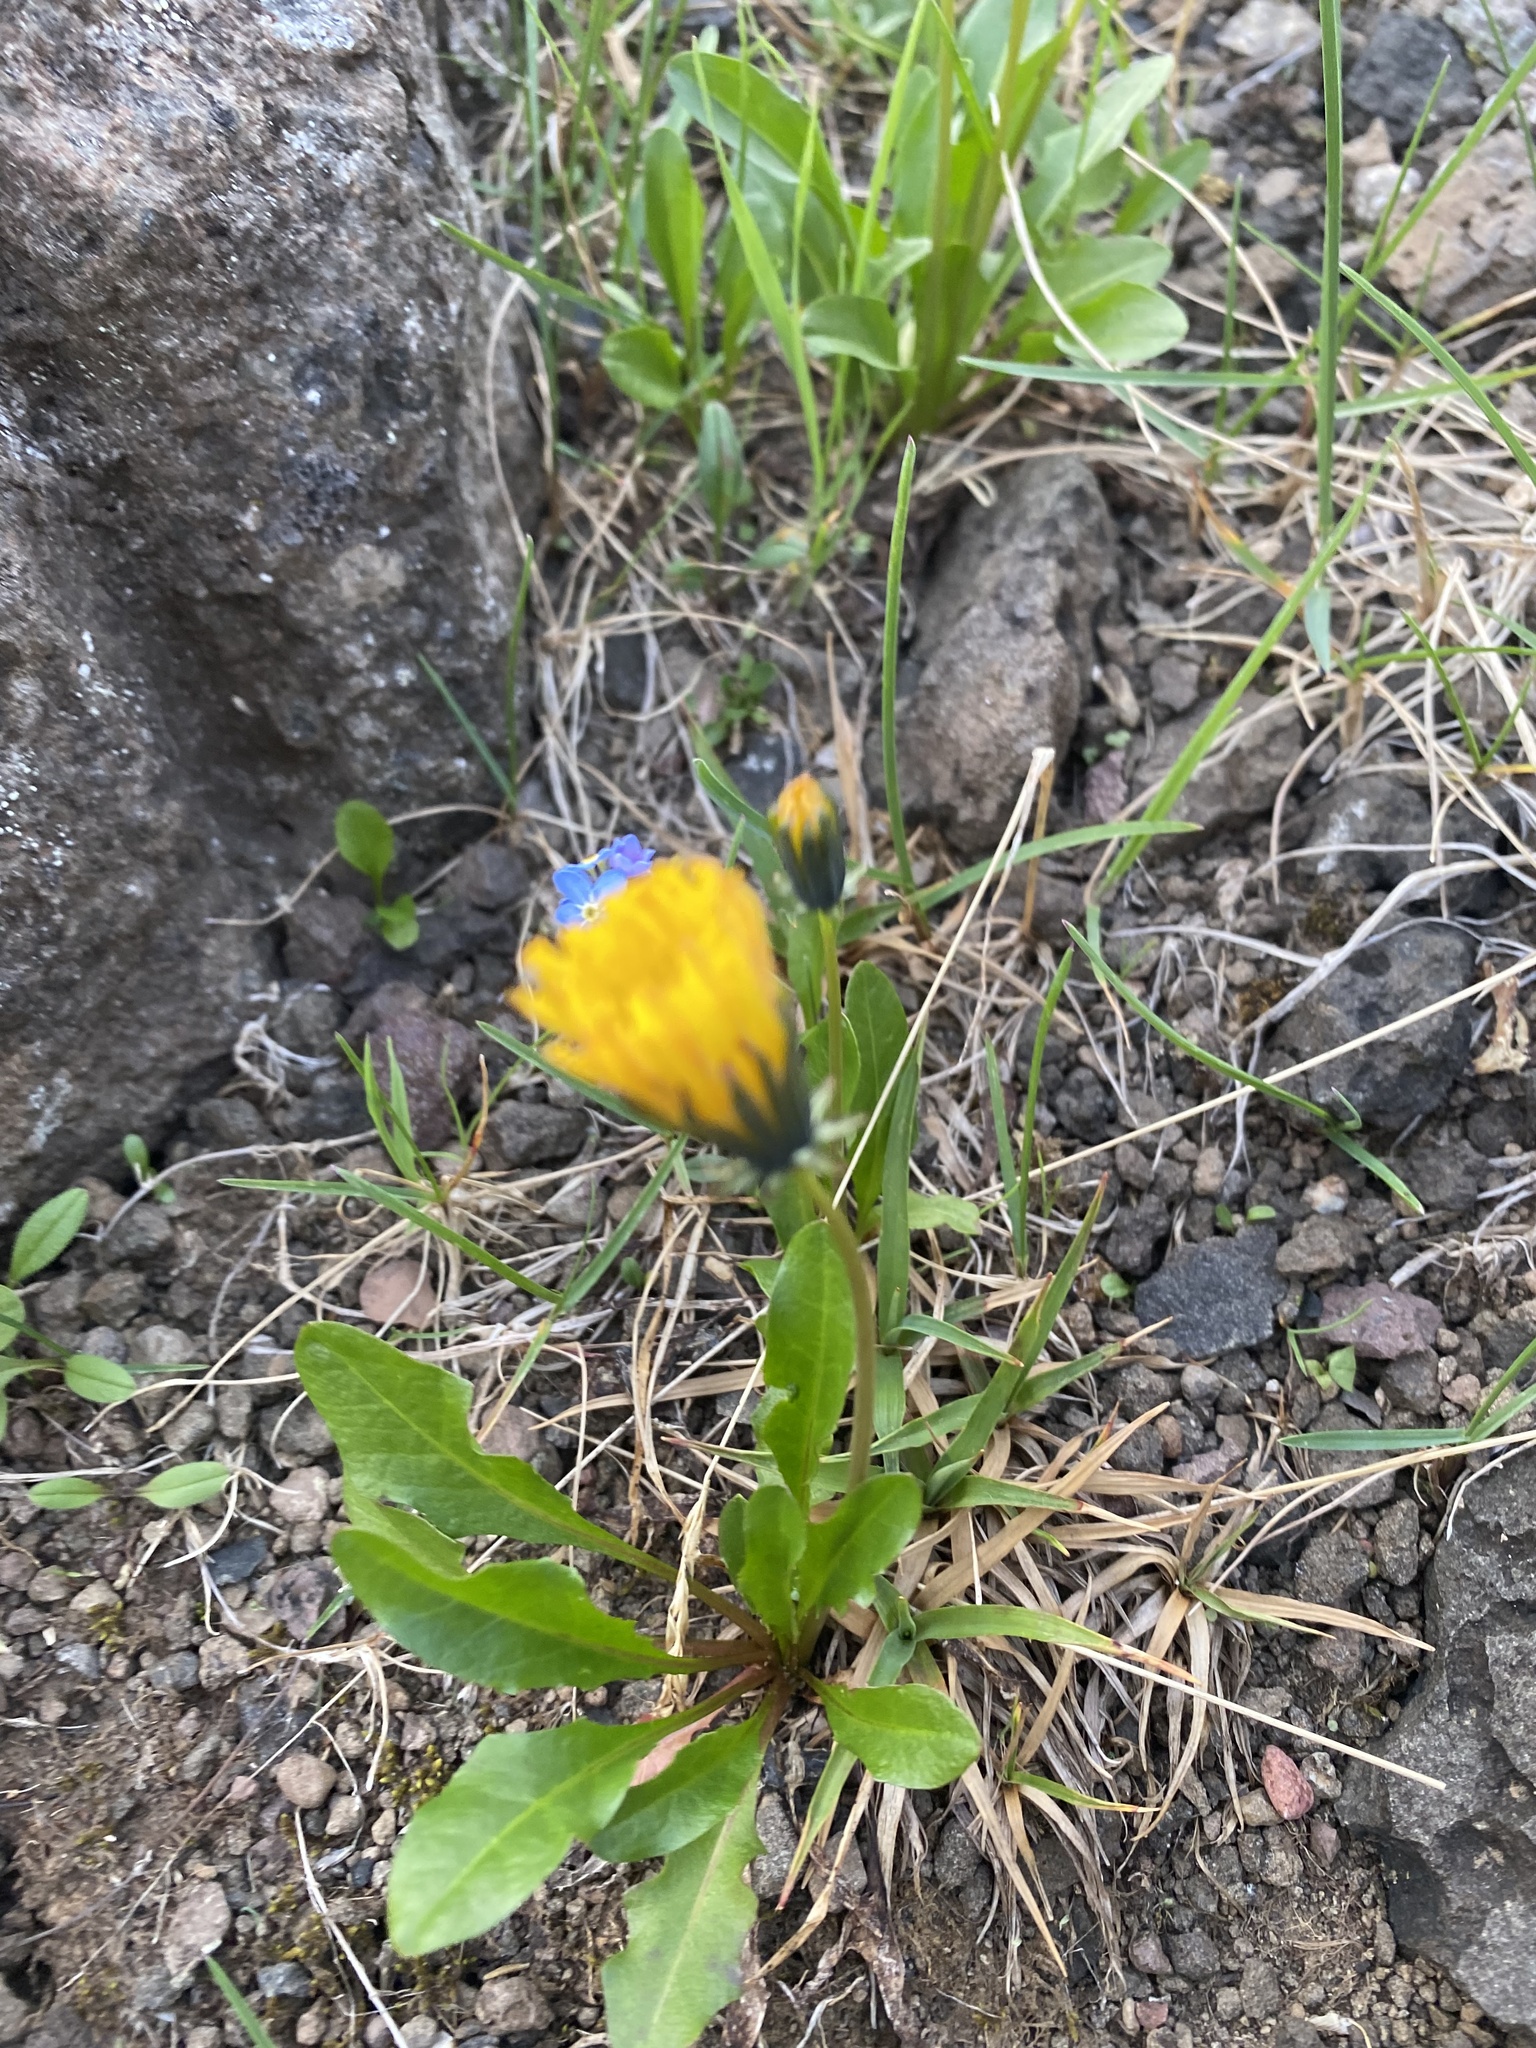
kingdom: Plantae
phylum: Tracheophyta
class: Magnoliopsida
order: Asterales
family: Asteraceae
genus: Taraxacum
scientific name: Taraxacum glabrum
